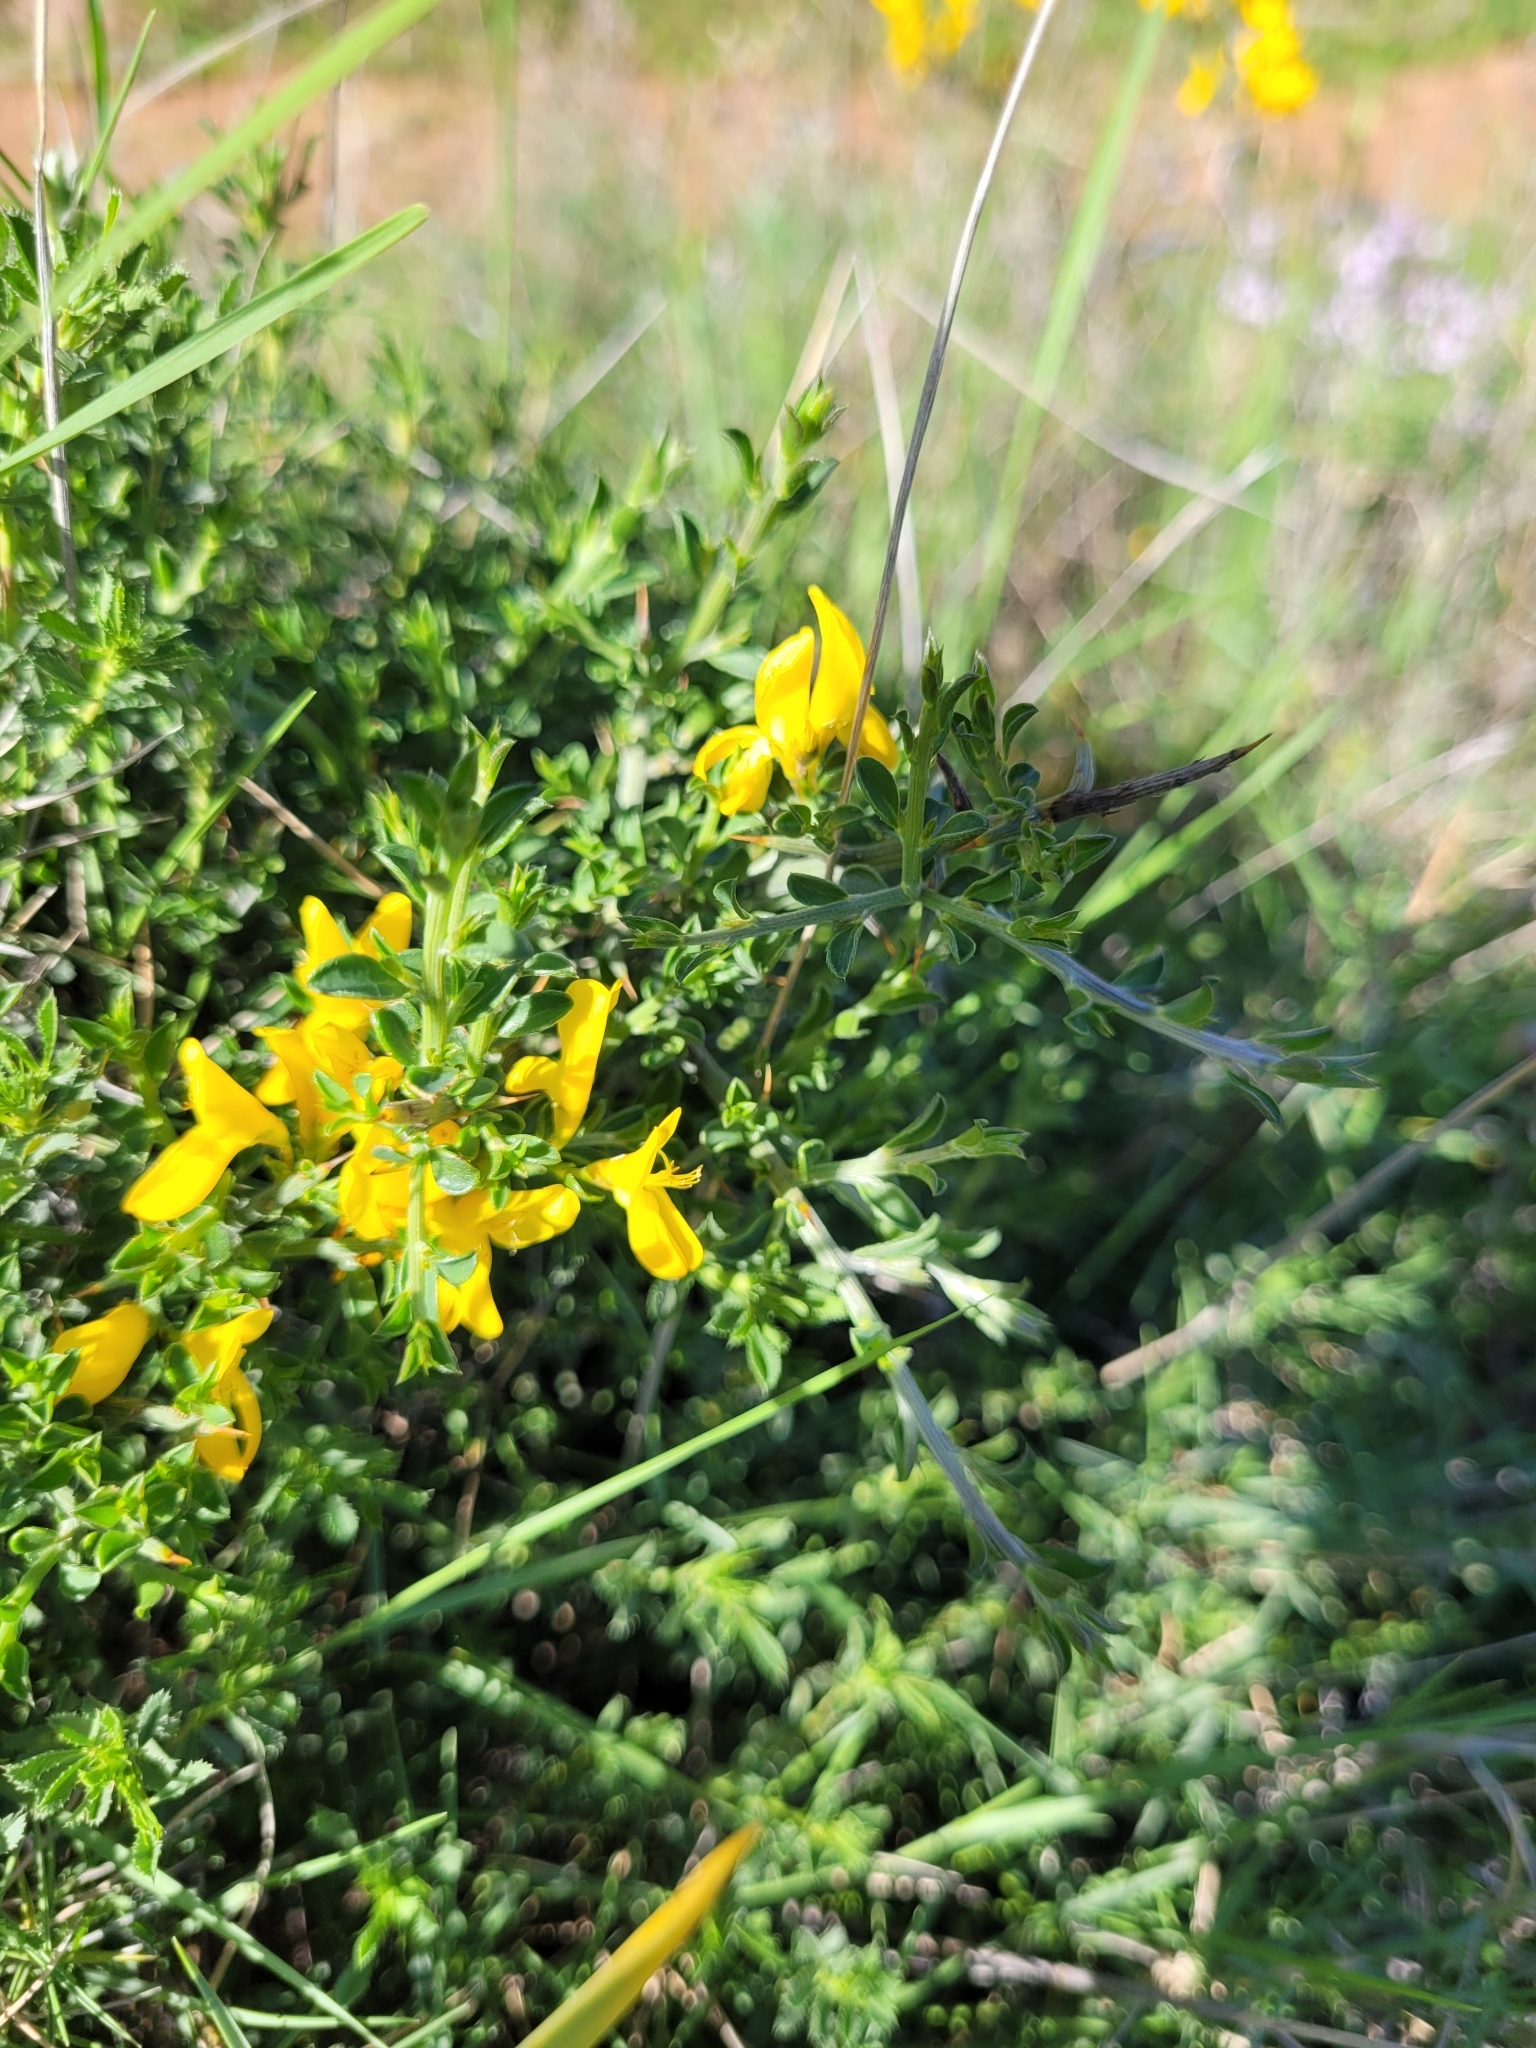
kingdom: Plantae
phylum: Tracheophyta
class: Magnoliopsida
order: Fabales
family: Fabaceae
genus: Genista
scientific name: Genista scorpius
